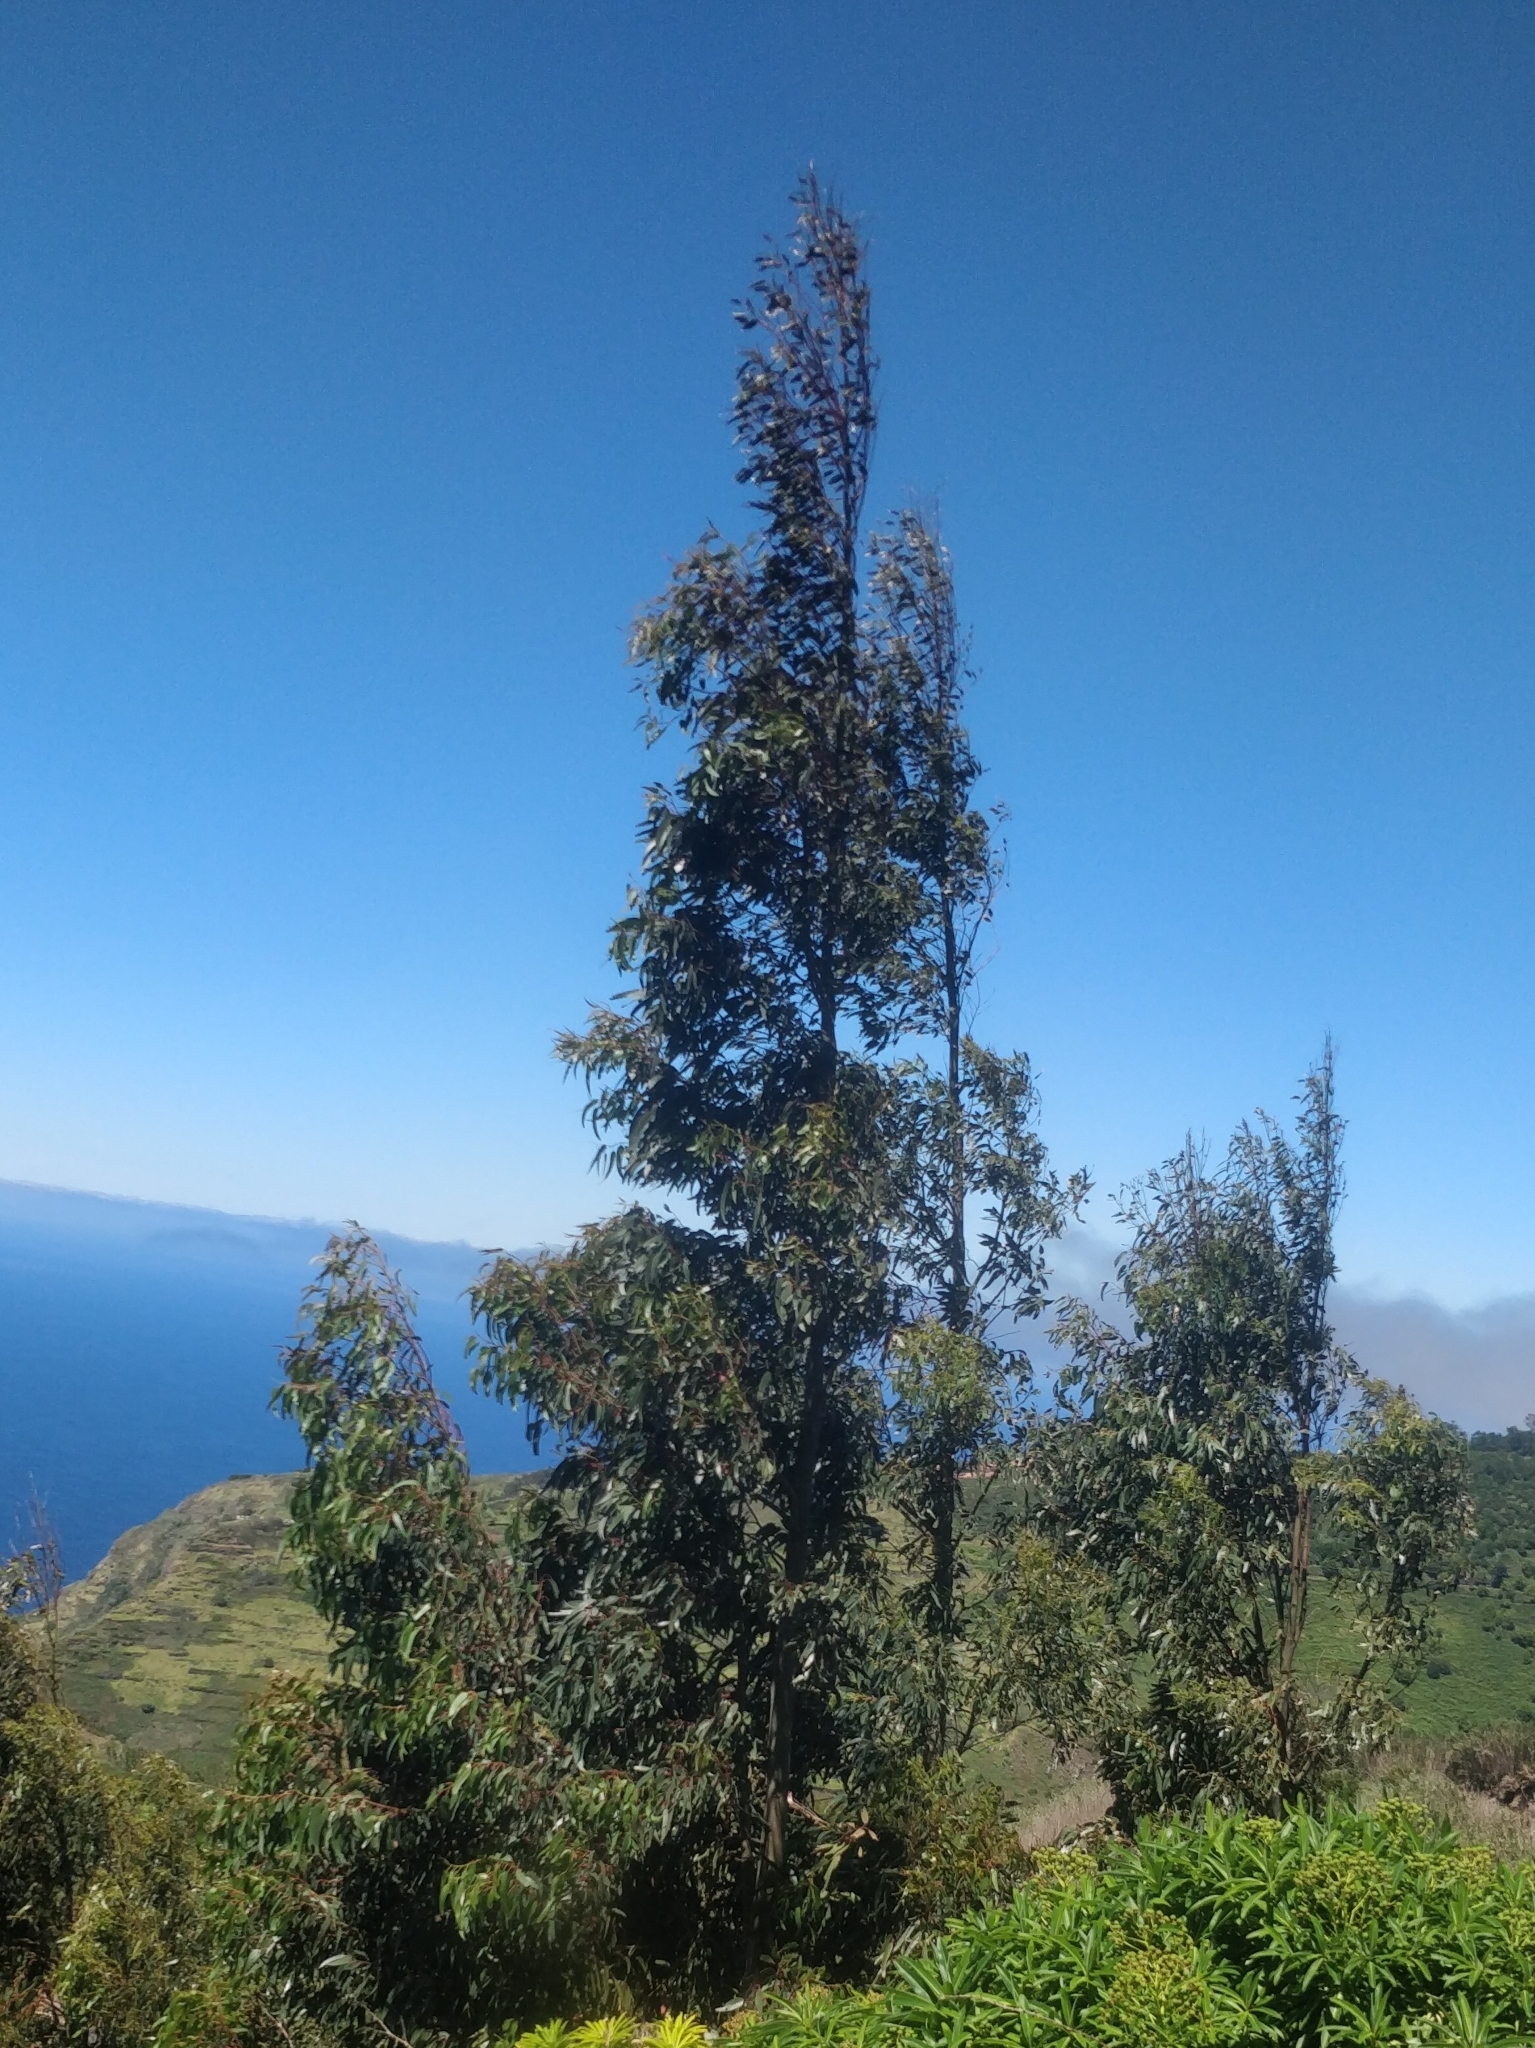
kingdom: Plantae
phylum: Tracheophyta
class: Magnoliopsida
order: Myrtales
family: Myrtaceae
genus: Eucalyptus
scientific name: Eucalyptus globulus
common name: Southern blue-gum
